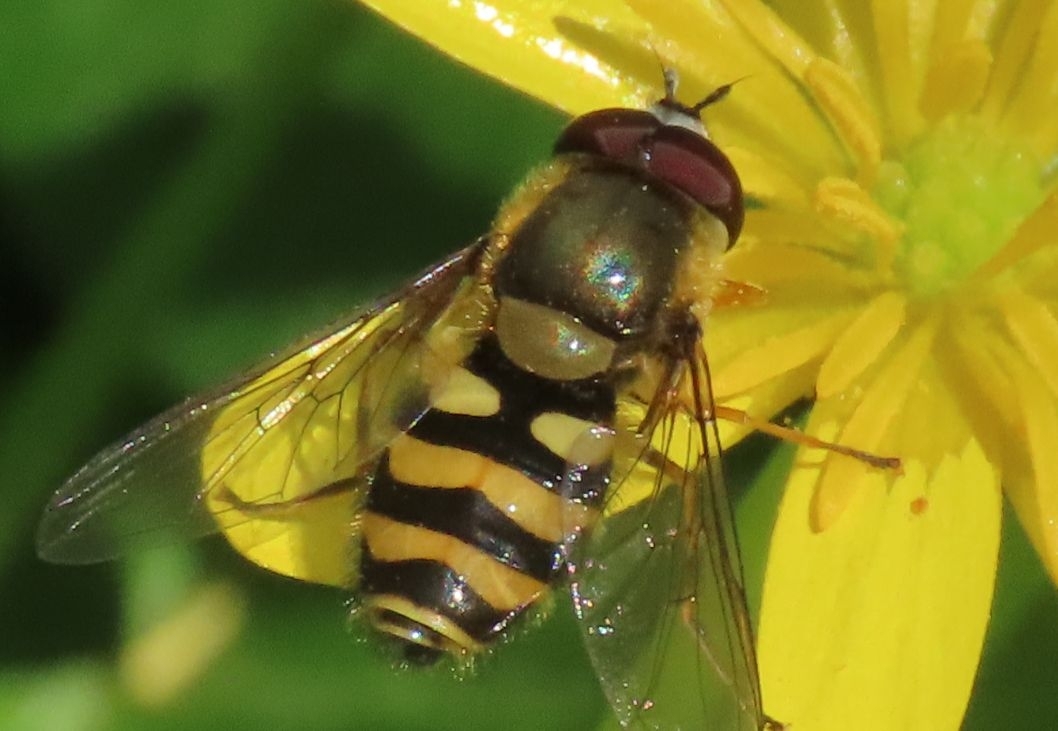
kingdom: Animalia
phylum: Arthropoda
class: Insecta
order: Diptera
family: Syrphidae
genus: Syrphus
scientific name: Syrphus
